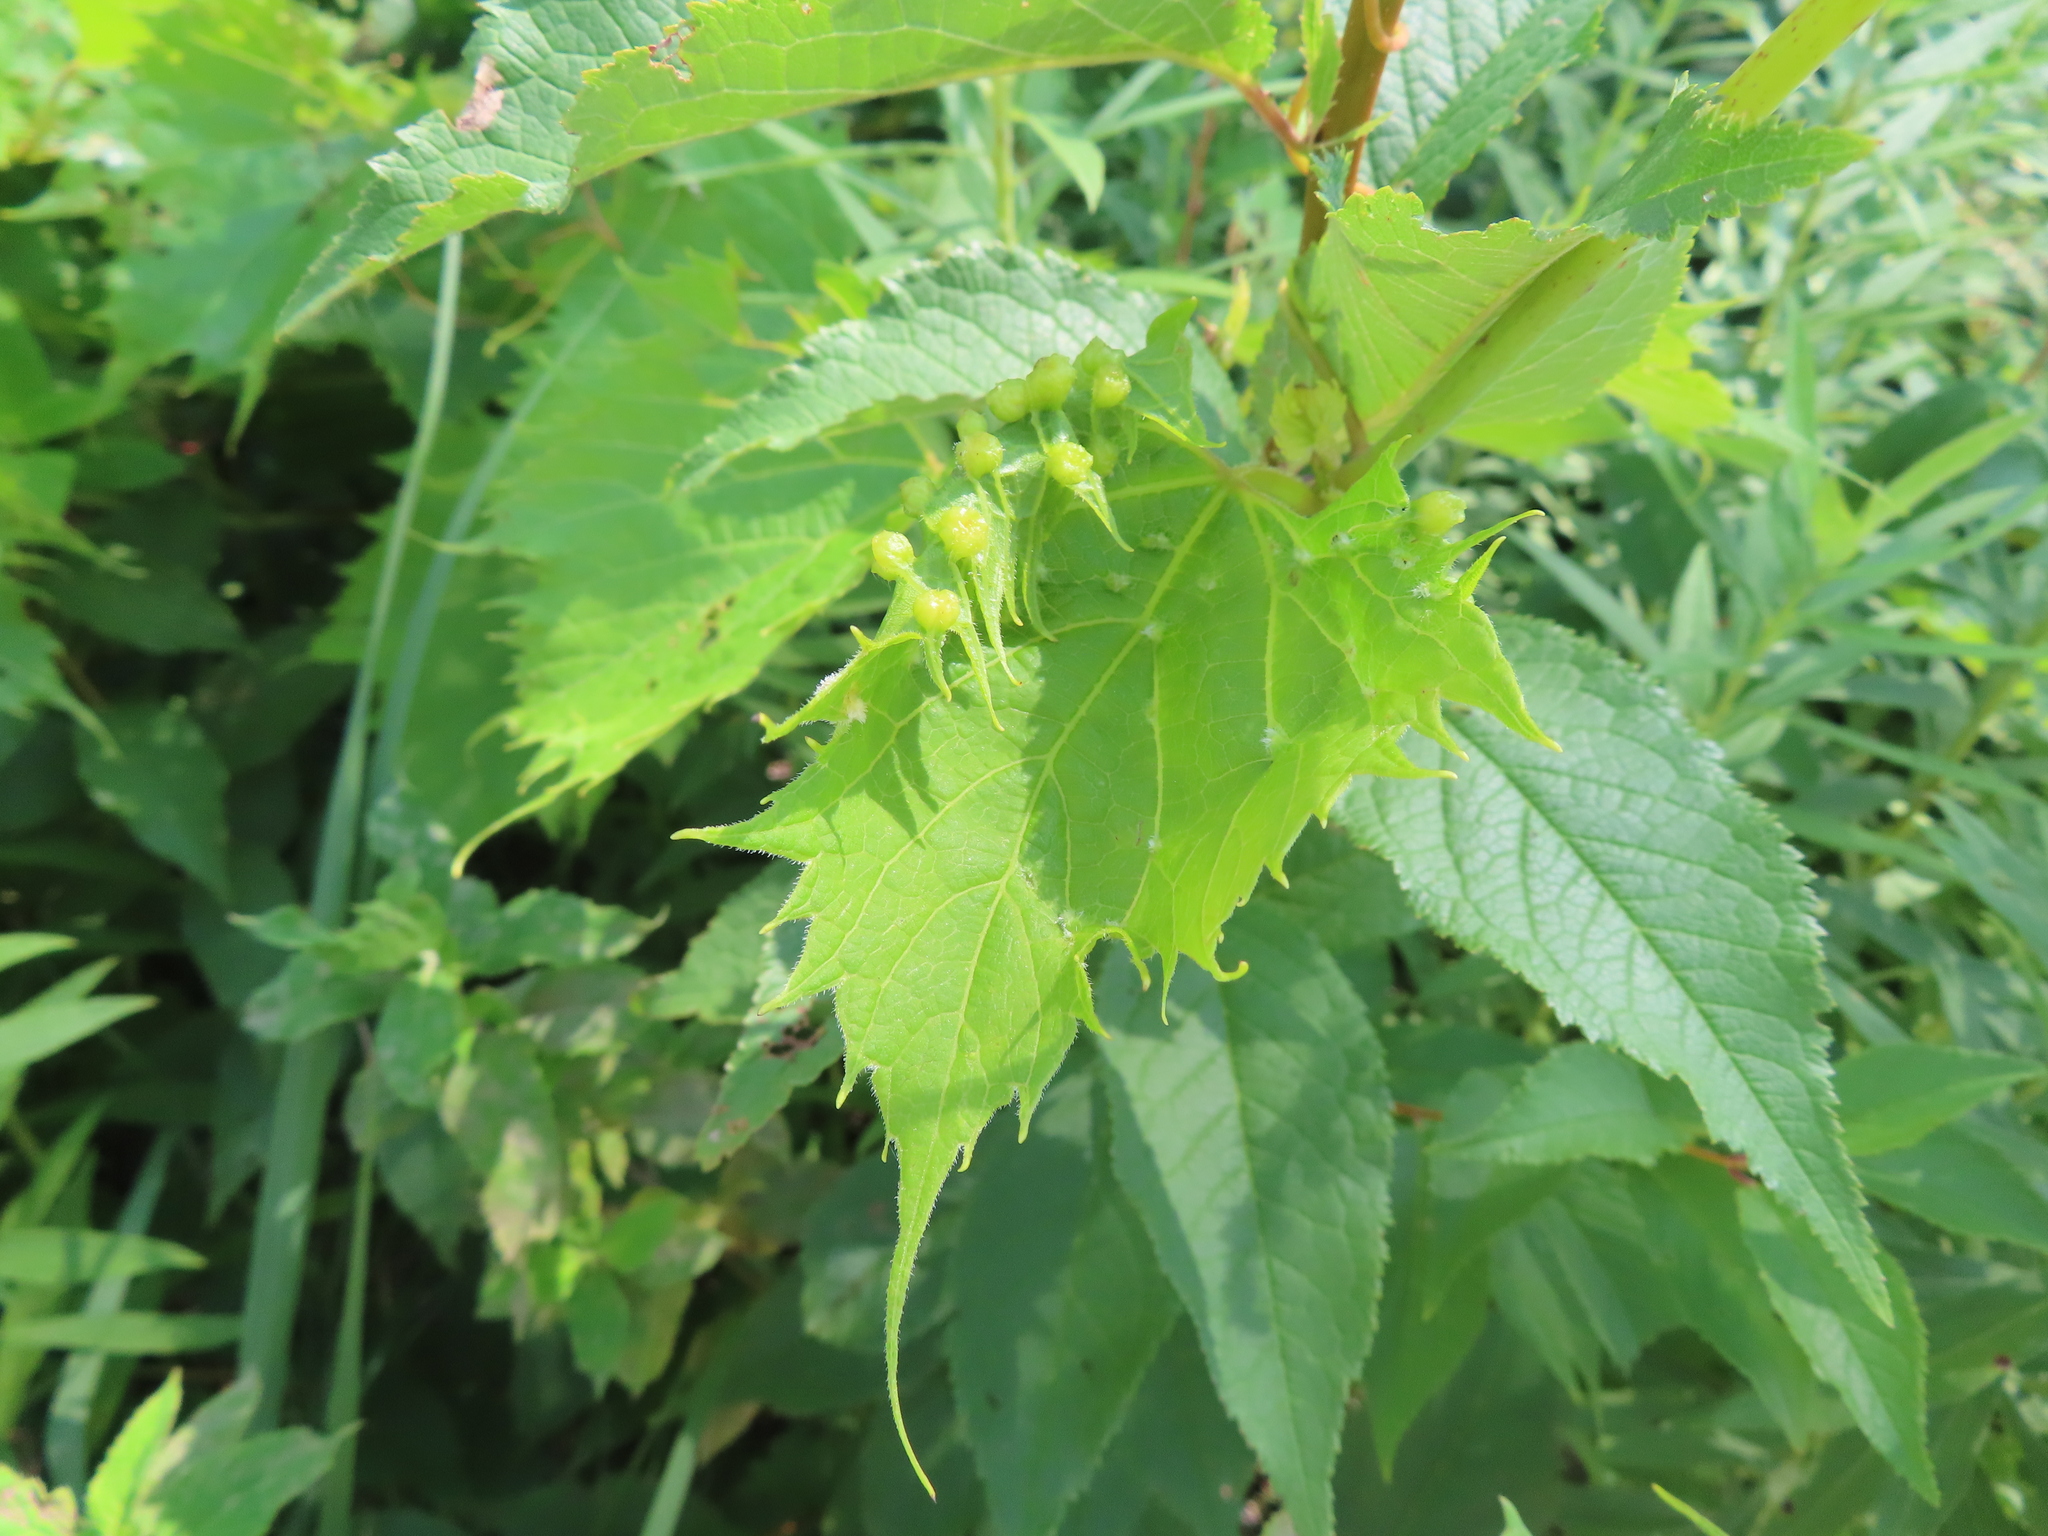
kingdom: Animalia
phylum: Arthropoda
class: Insecta
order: Hemiptera
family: Phylloxeridae
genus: Daktulosphaira
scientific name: Daktulosphaira vitifoliae
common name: Grape phylloxera
